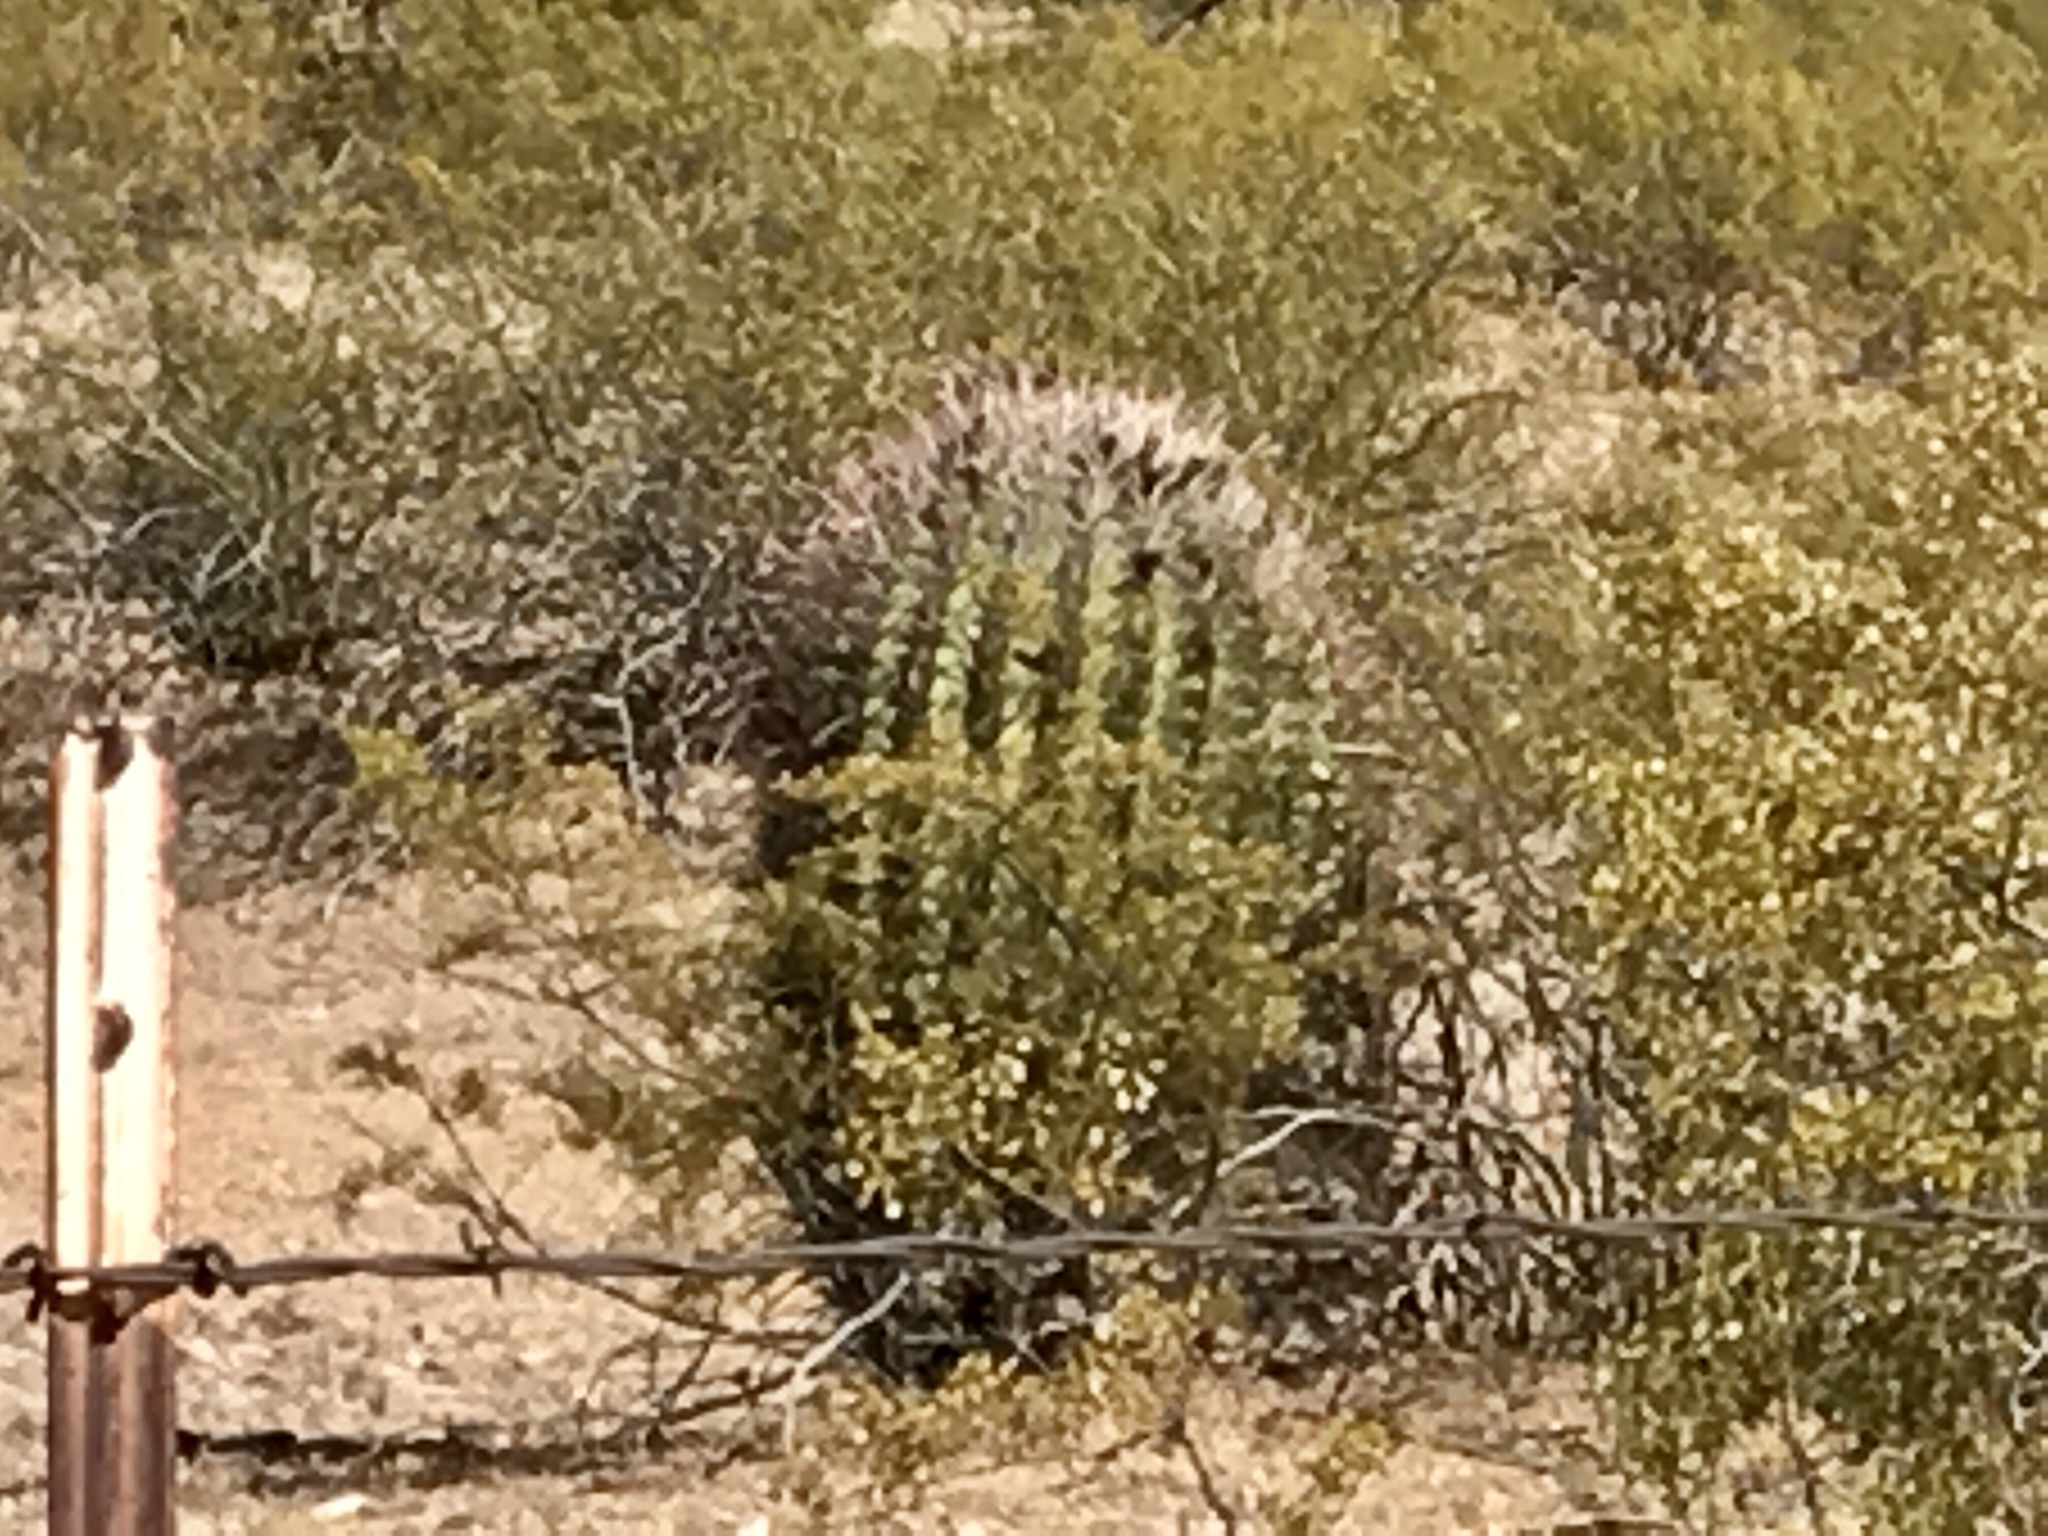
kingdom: Plantae
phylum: Tracheophyta
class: Magnoliopsida
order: Caryophyllales
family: Cactaceae
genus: Ferocactus
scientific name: Ferocactus wislizeni
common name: Candy barrel cactus
